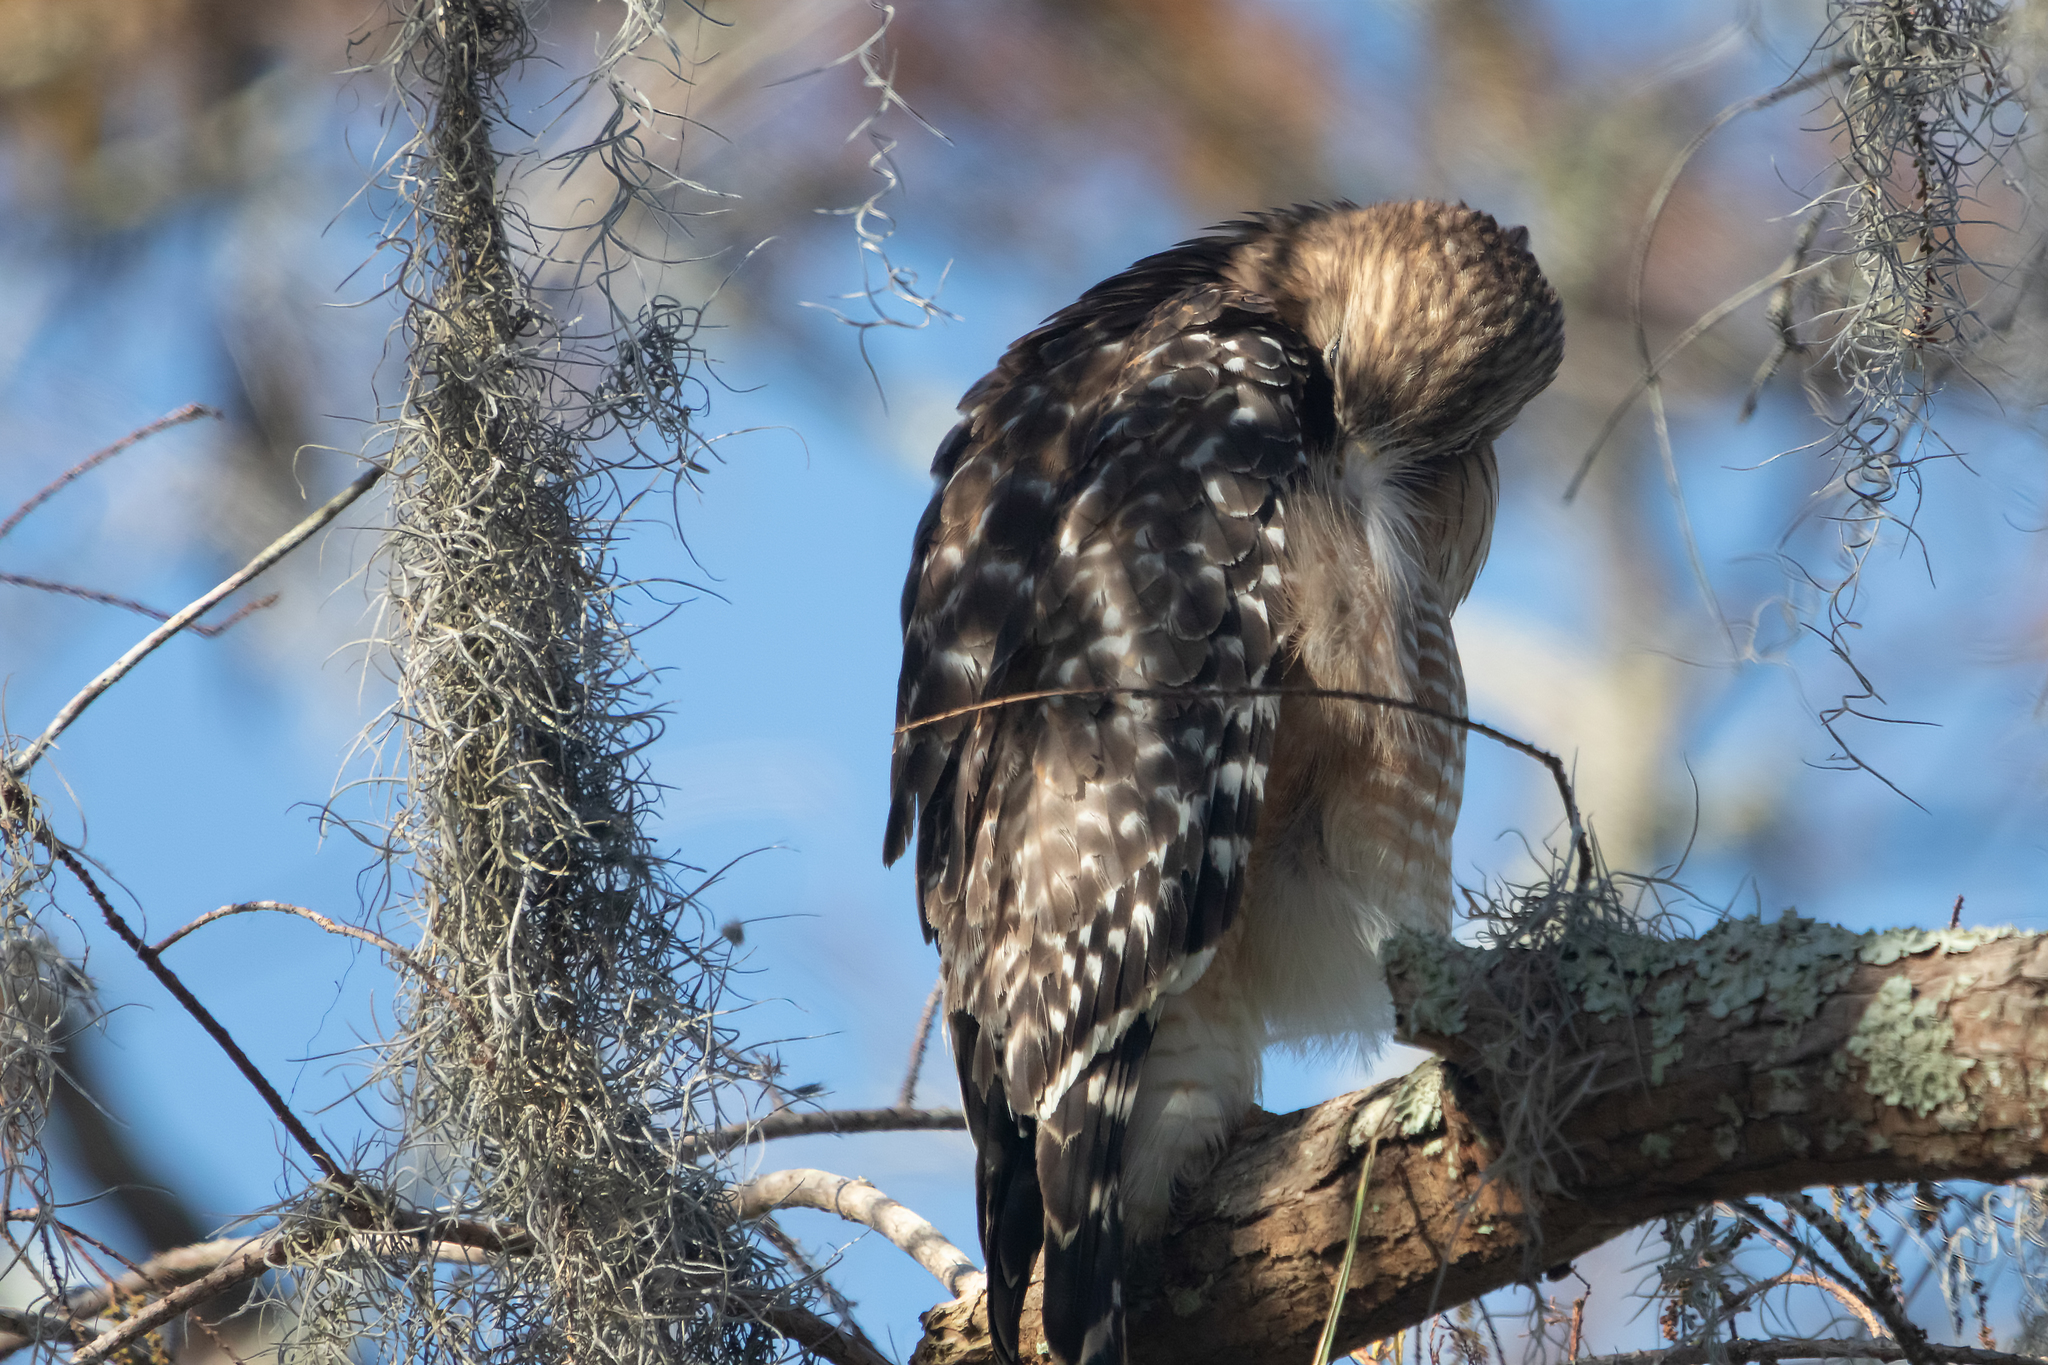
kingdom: Animalia
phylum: Chordata
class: Aves
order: Accipitriformes
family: Accipitridae
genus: Buteo
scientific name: Buteo lineatus
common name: Red-shouldered hawk
